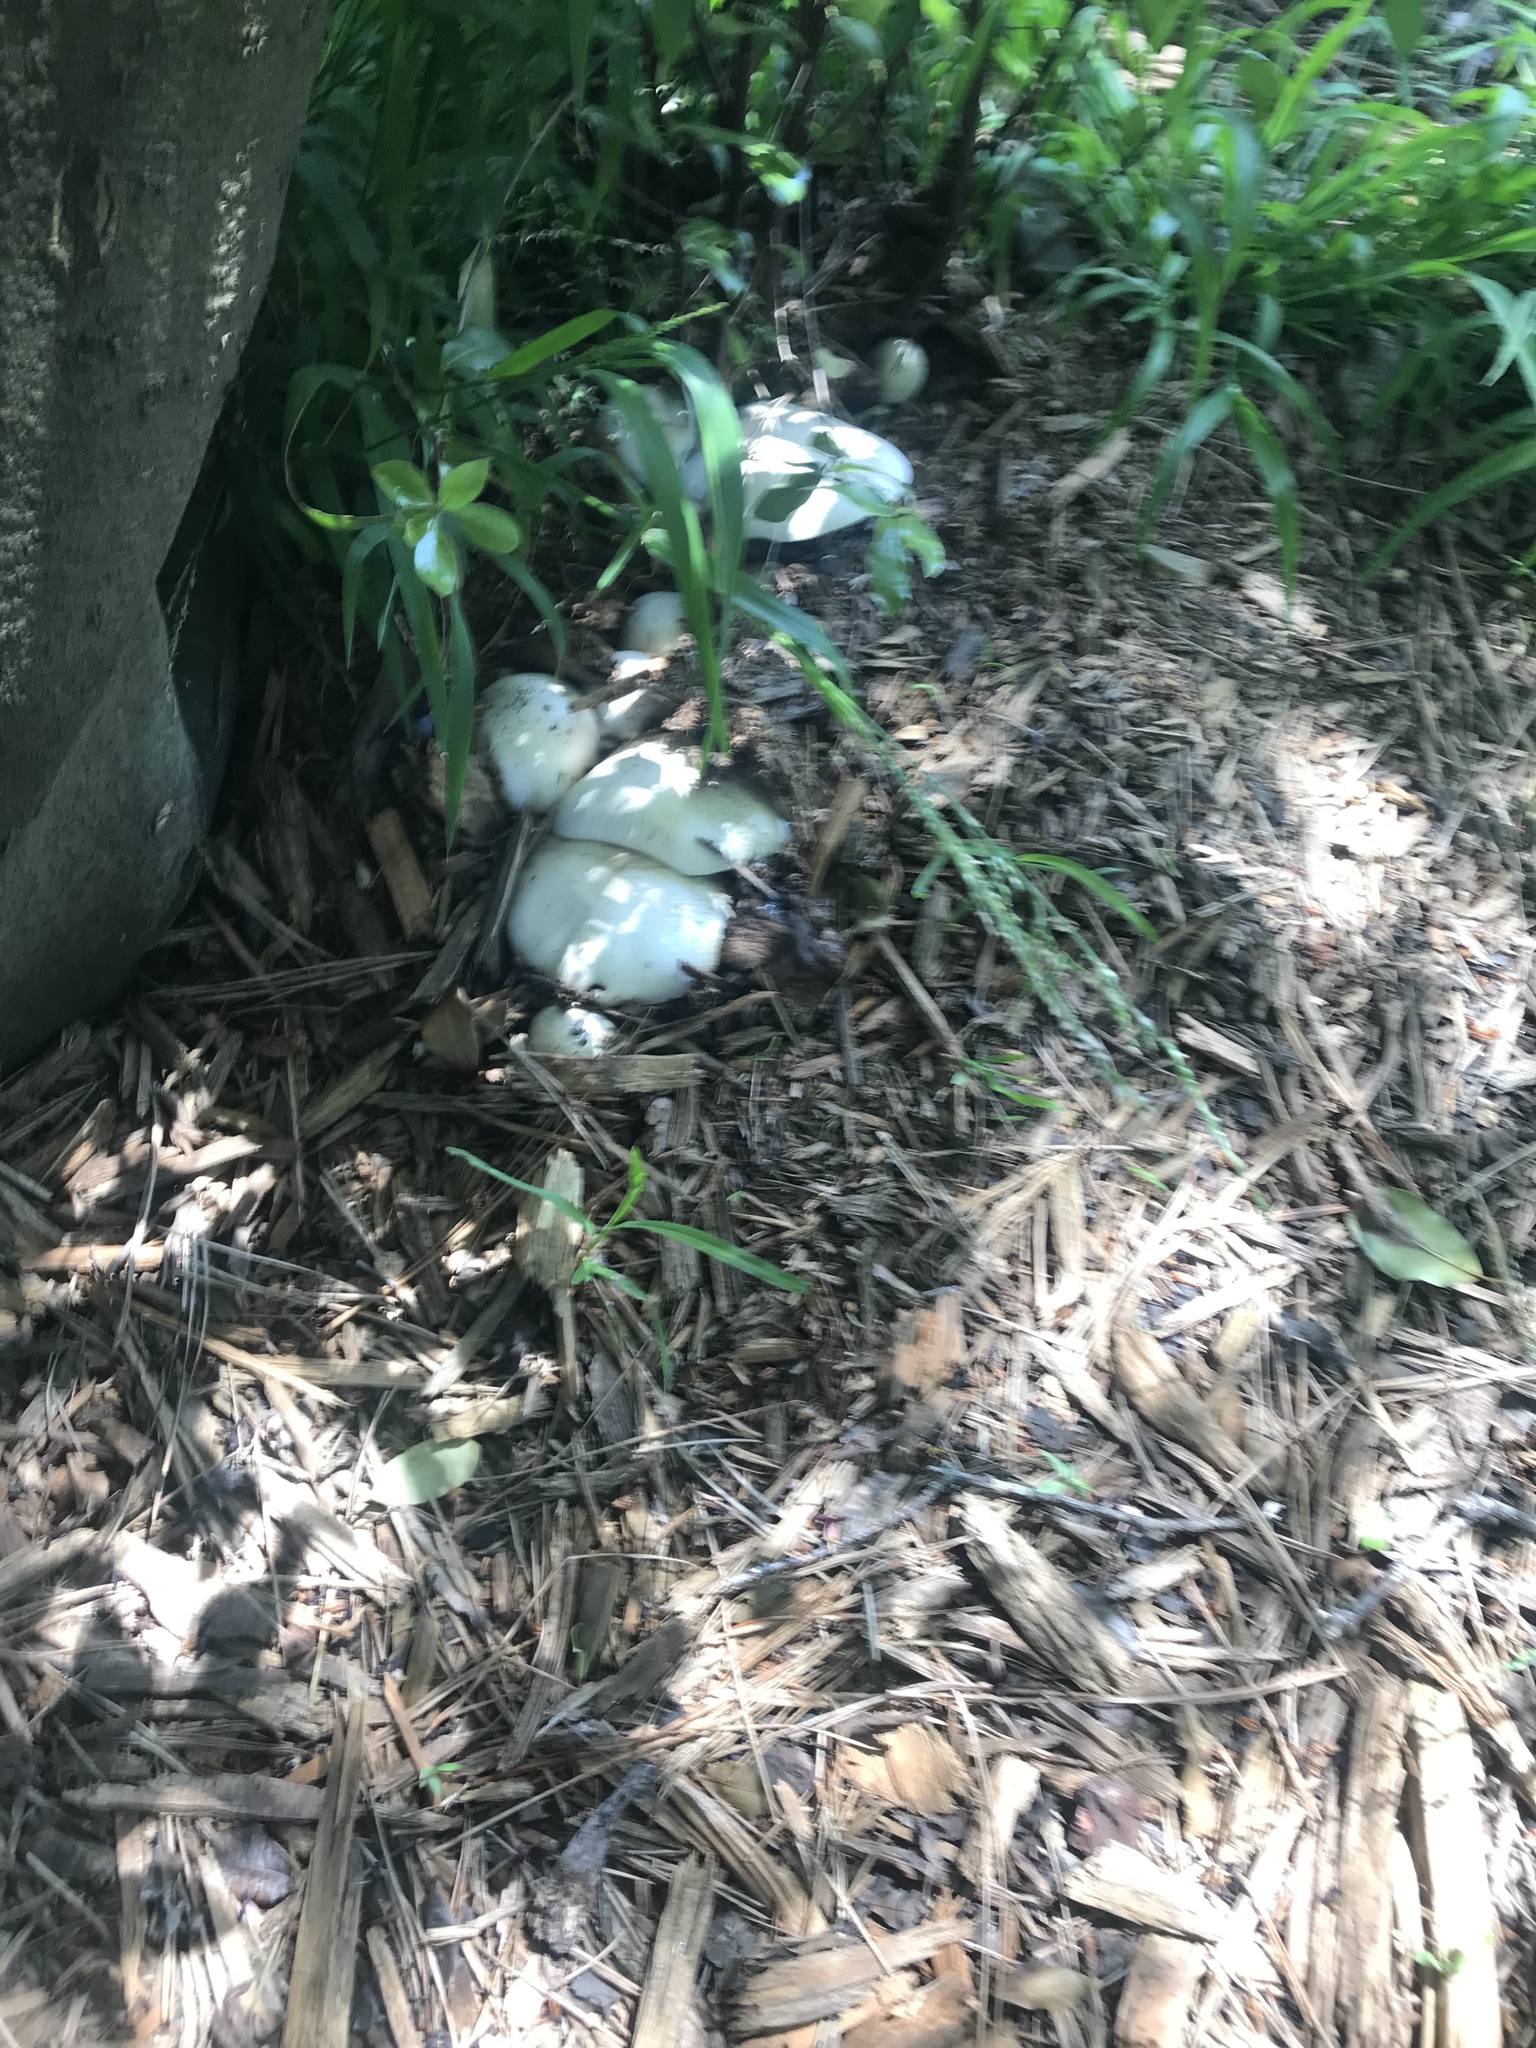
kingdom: Fungi
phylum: Basidiomycota
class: Agaricomycetes
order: Agaricales
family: Agaricaceae
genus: Agaricus
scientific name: Agaricus xanthodermus
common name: Yellow stainer
